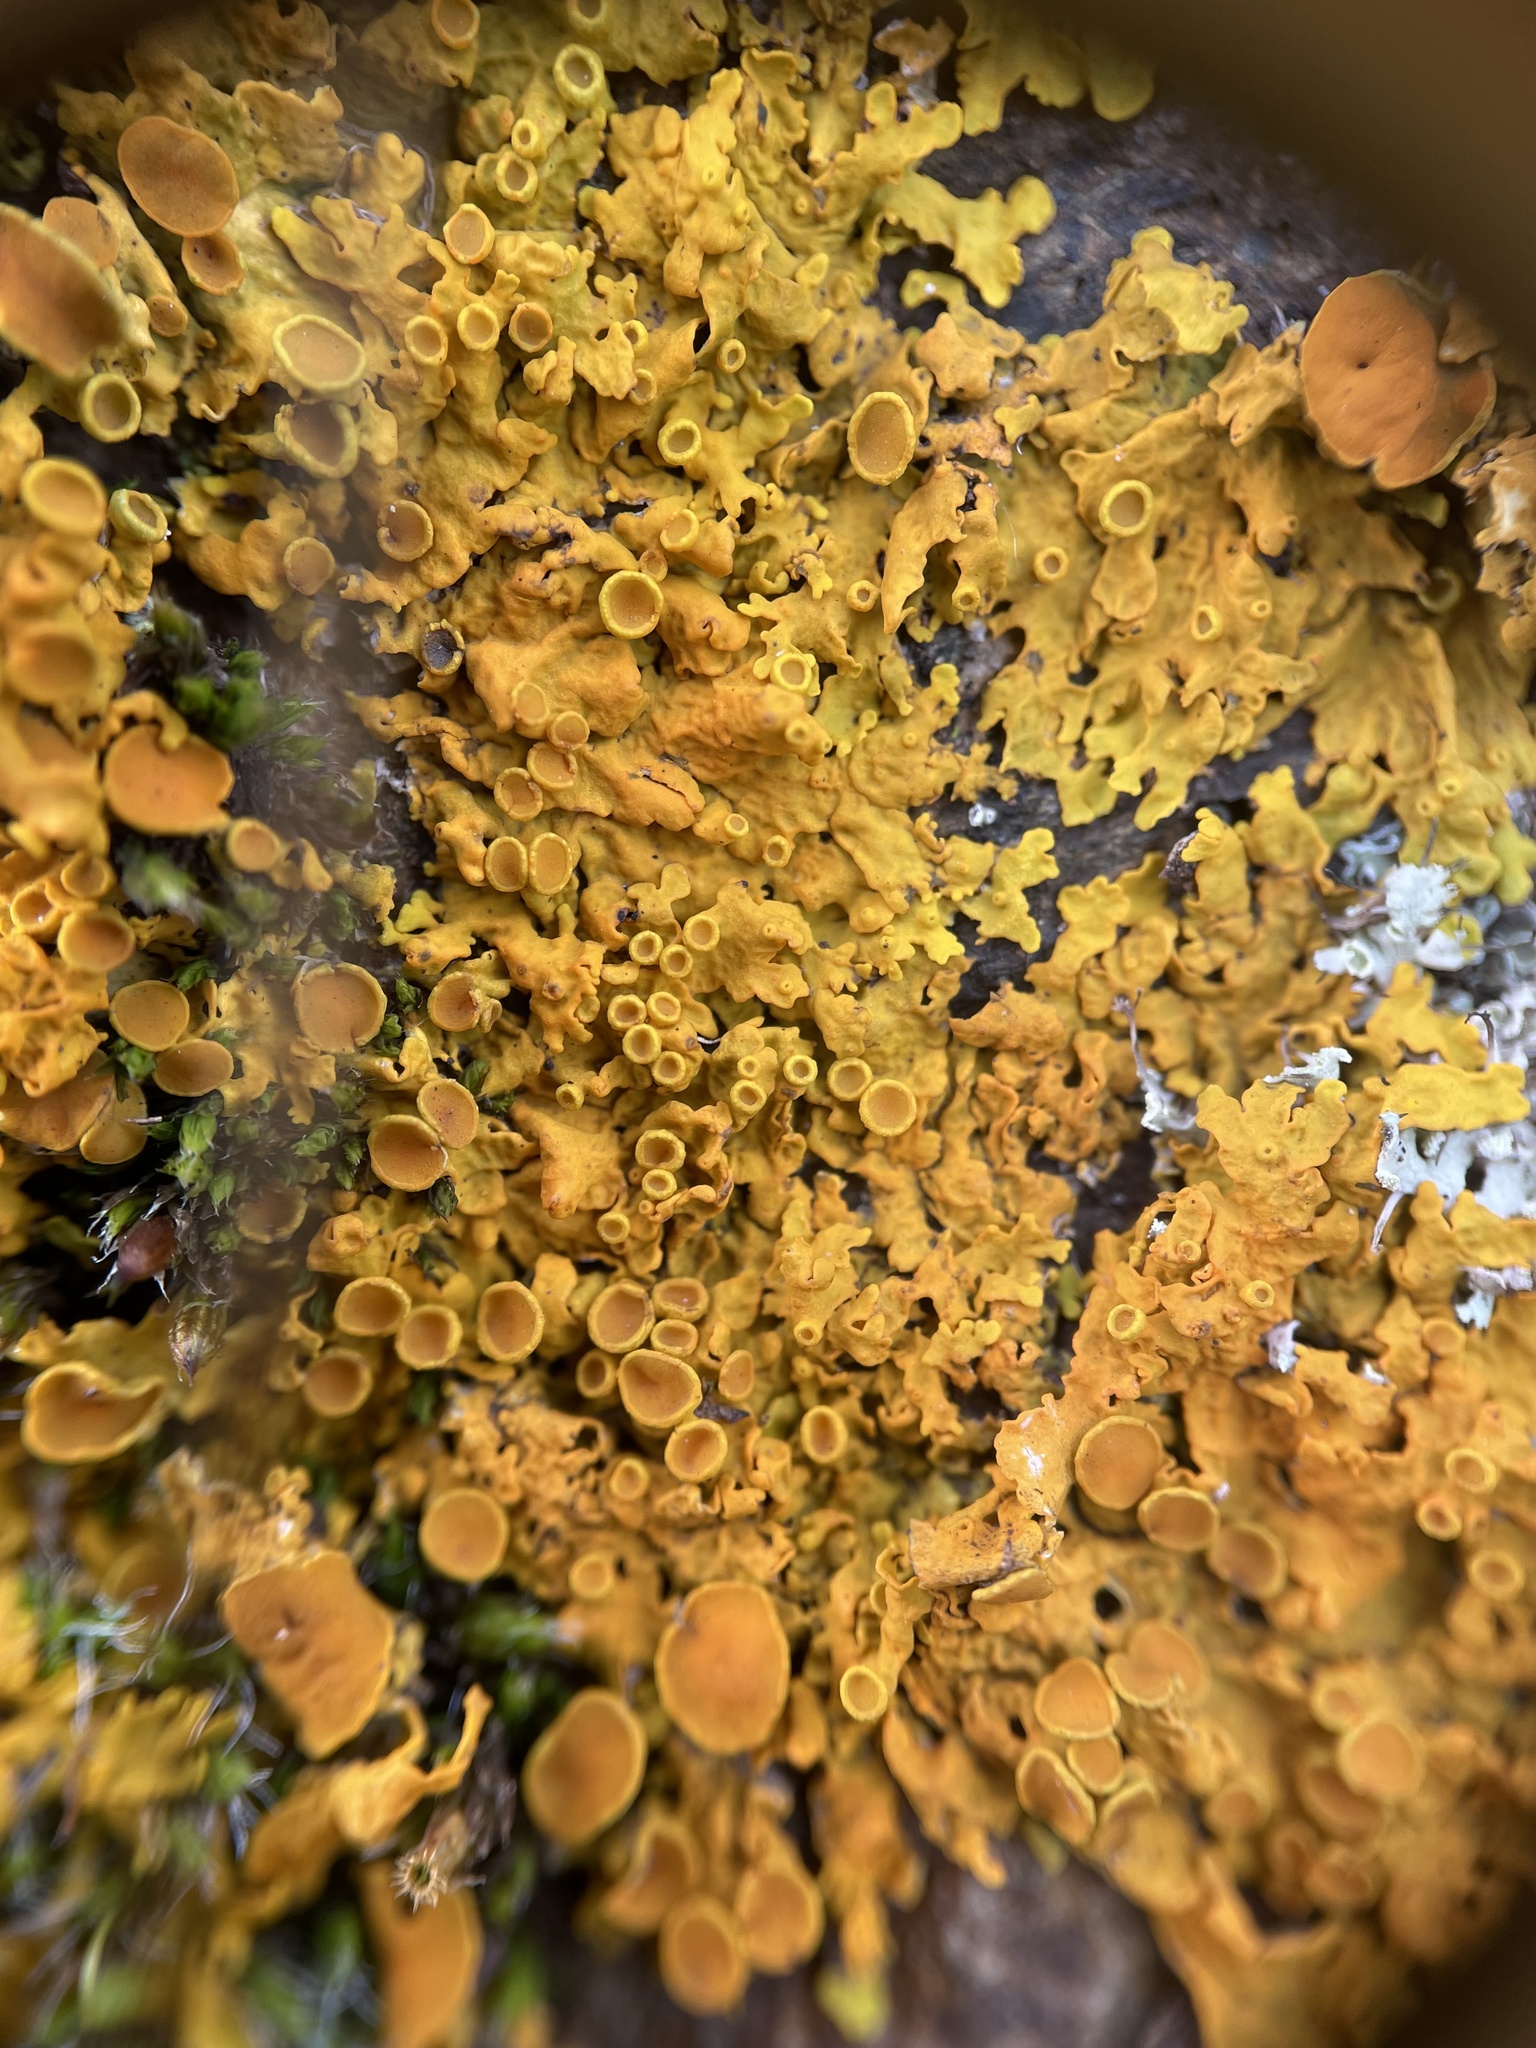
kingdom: Fungi
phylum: Ascomycota
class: Lecanoromycetes
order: Teloschistales
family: Teloschistaceae
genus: Xanthoria
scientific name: Xanthoria parietina
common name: Common orange lichen
